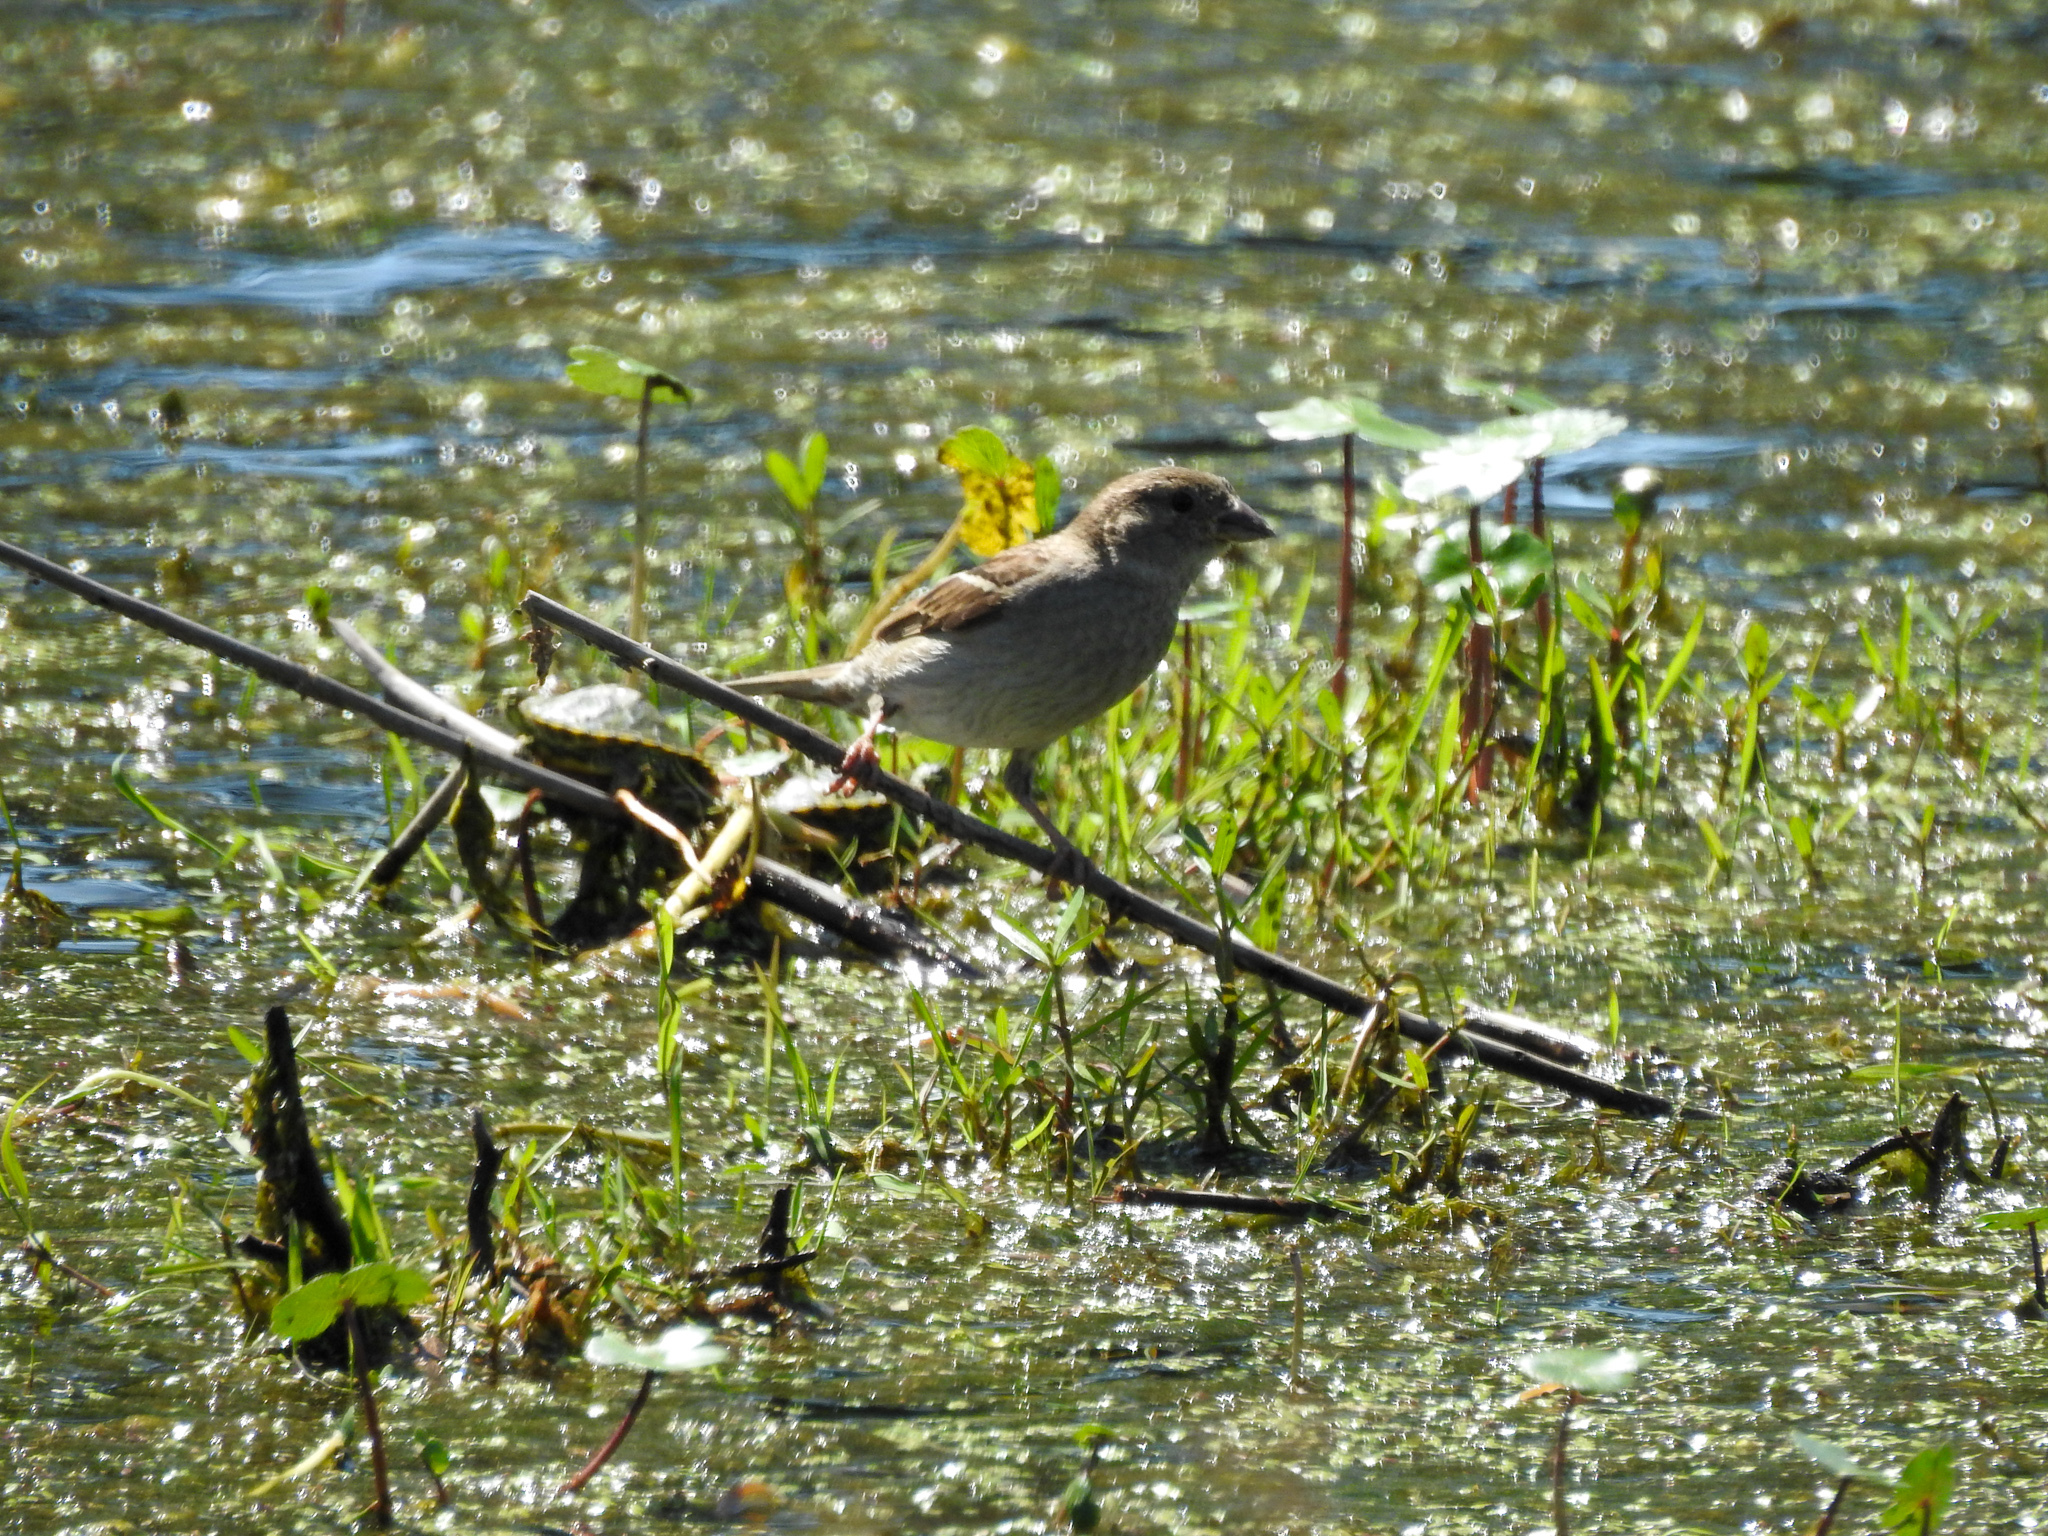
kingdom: Animalia
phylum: Chordata
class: Aves
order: Passeriformes
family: Passeridae
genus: Passer
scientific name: Passer domesticus
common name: House sparrow
